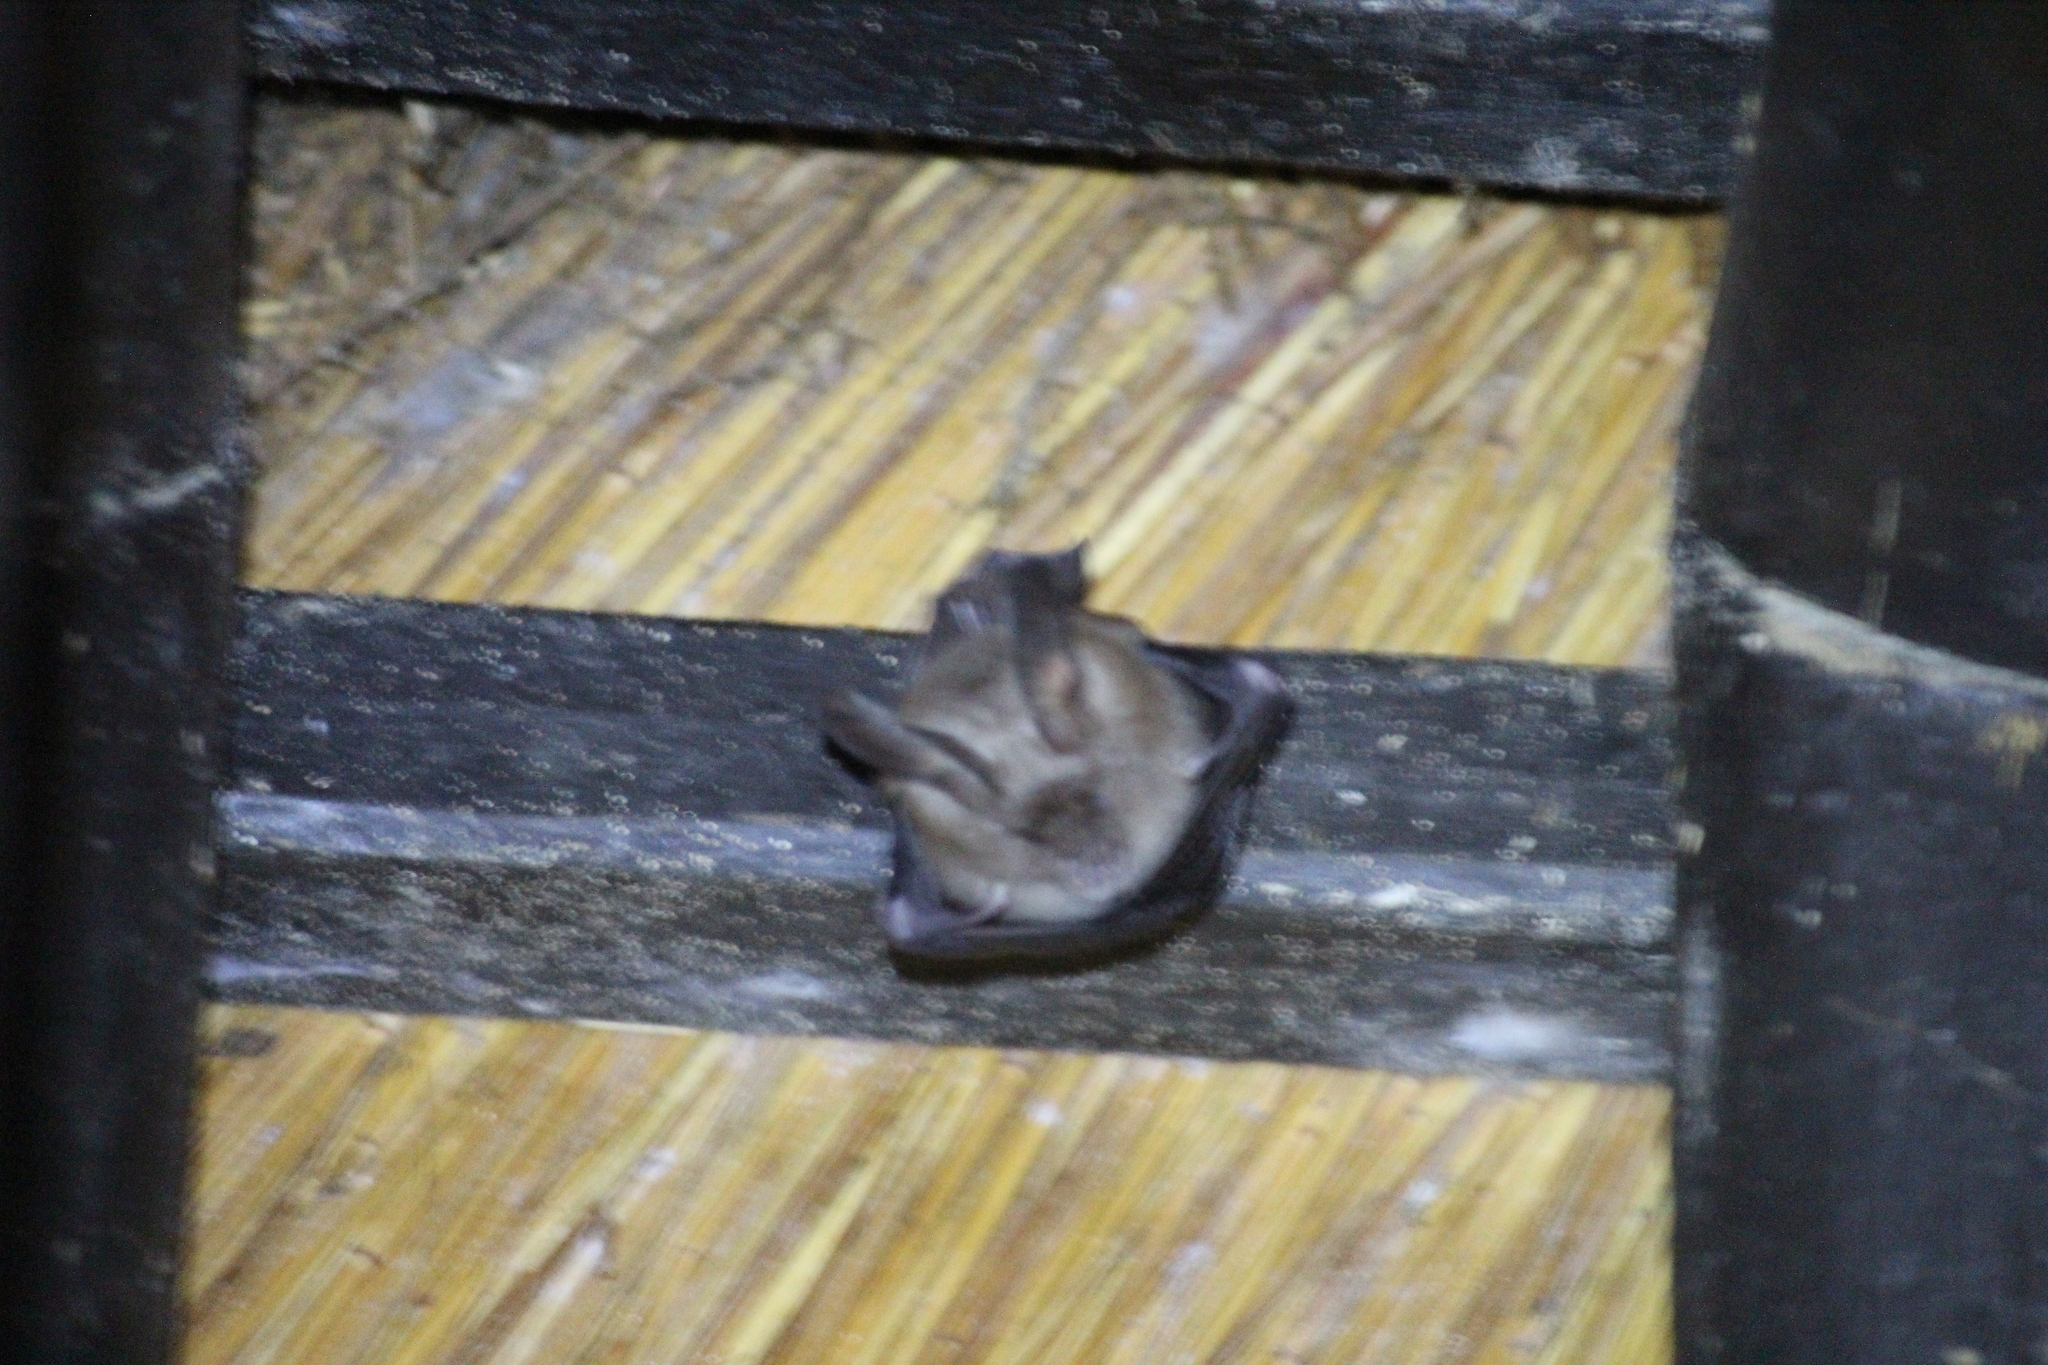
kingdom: Animalia
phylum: Chordata
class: Mammalia
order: Chiroptera
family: Nycteridae
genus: Nycteris
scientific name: Nycteris thebaica
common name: Egyptian slit-faced bat
